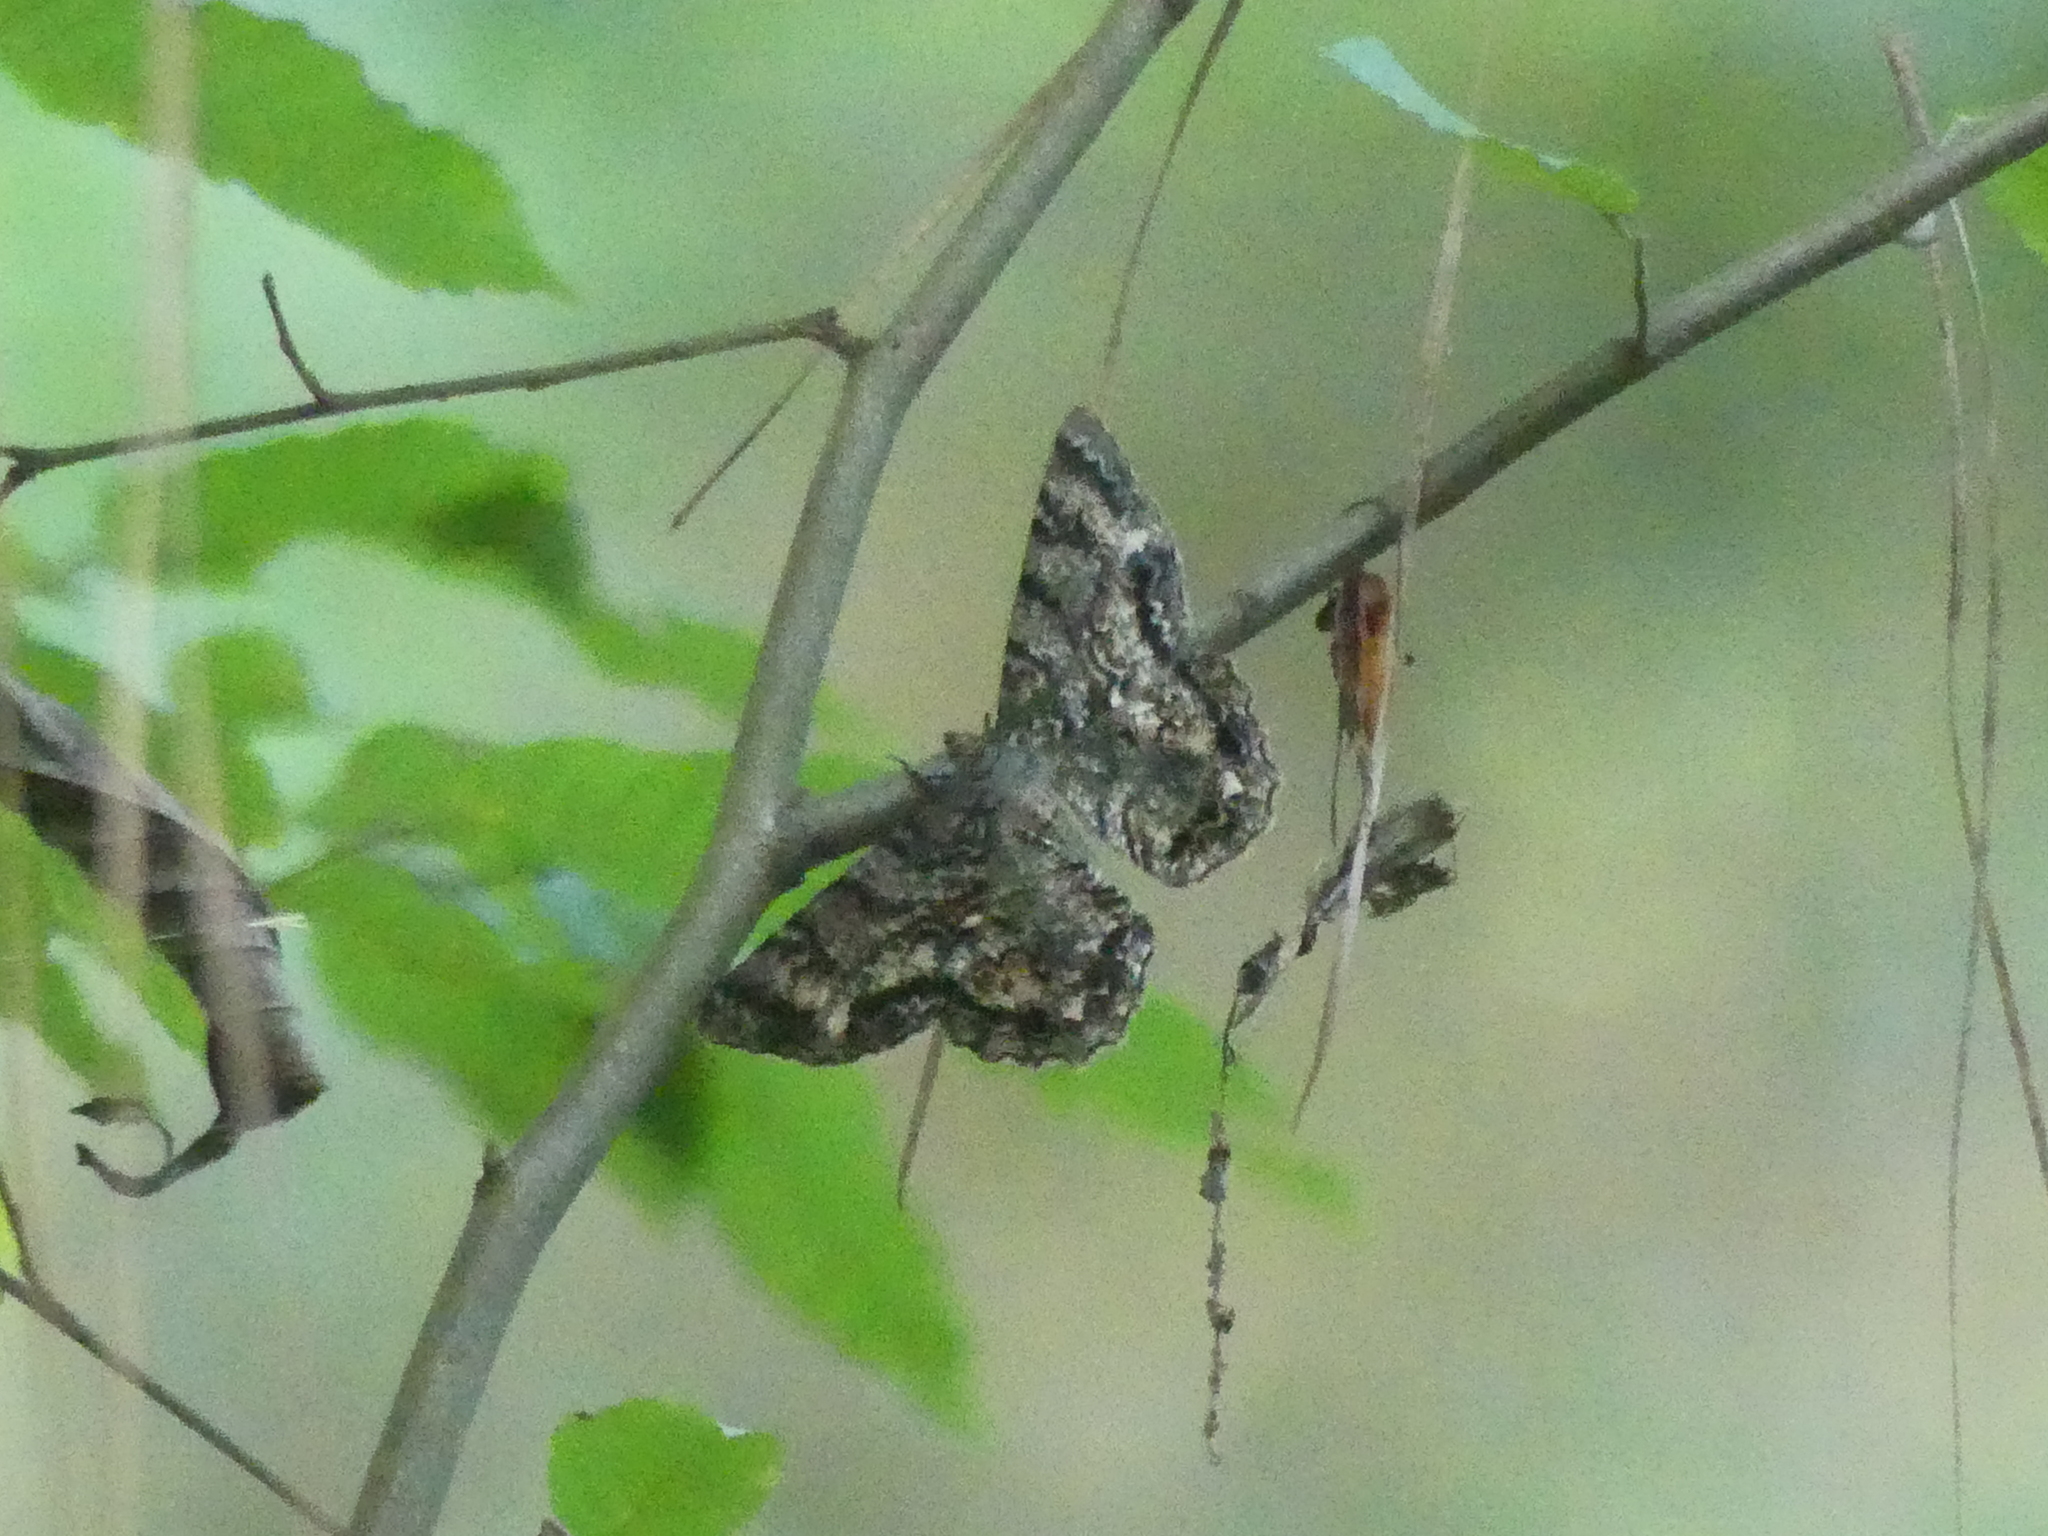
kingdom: Animalia
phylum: Arthropoda
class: Insecta
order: Lepidoptera
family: Geometridae
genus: Epimecis
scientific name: Epimecis hortaria
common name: Tulip-tree beauty
